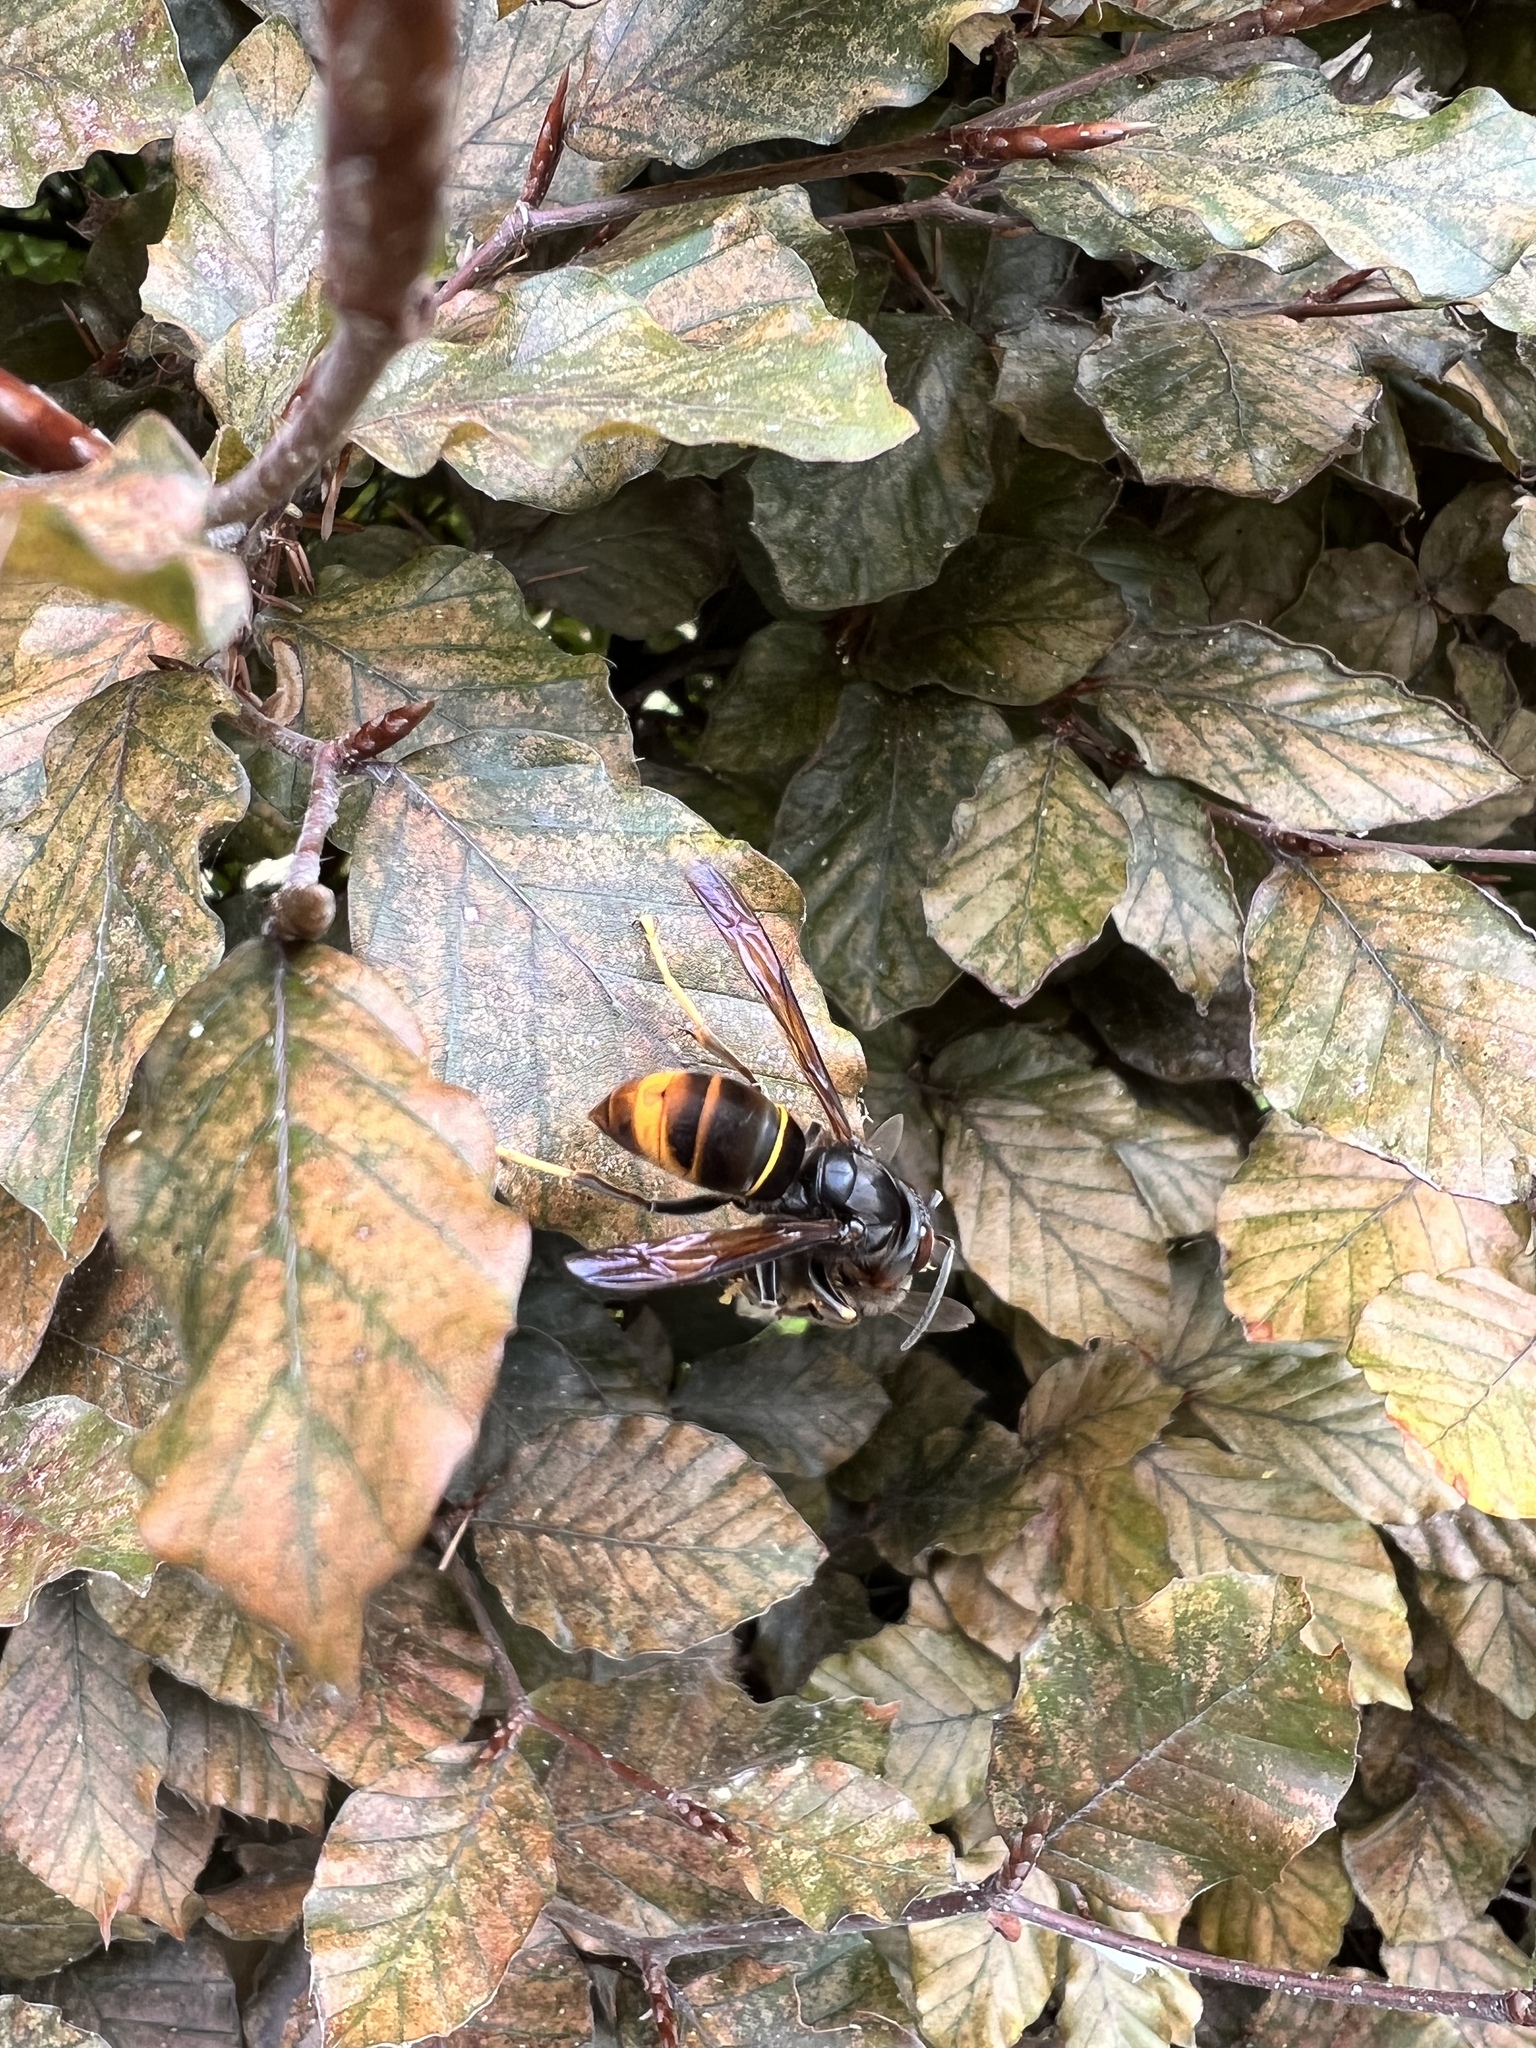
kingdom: Animalia
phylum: Arthropoda
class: Insecta
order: Hymenoptera
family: Vespidae
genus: Vespa
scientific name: Vespa velutina
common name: Asian hornet
